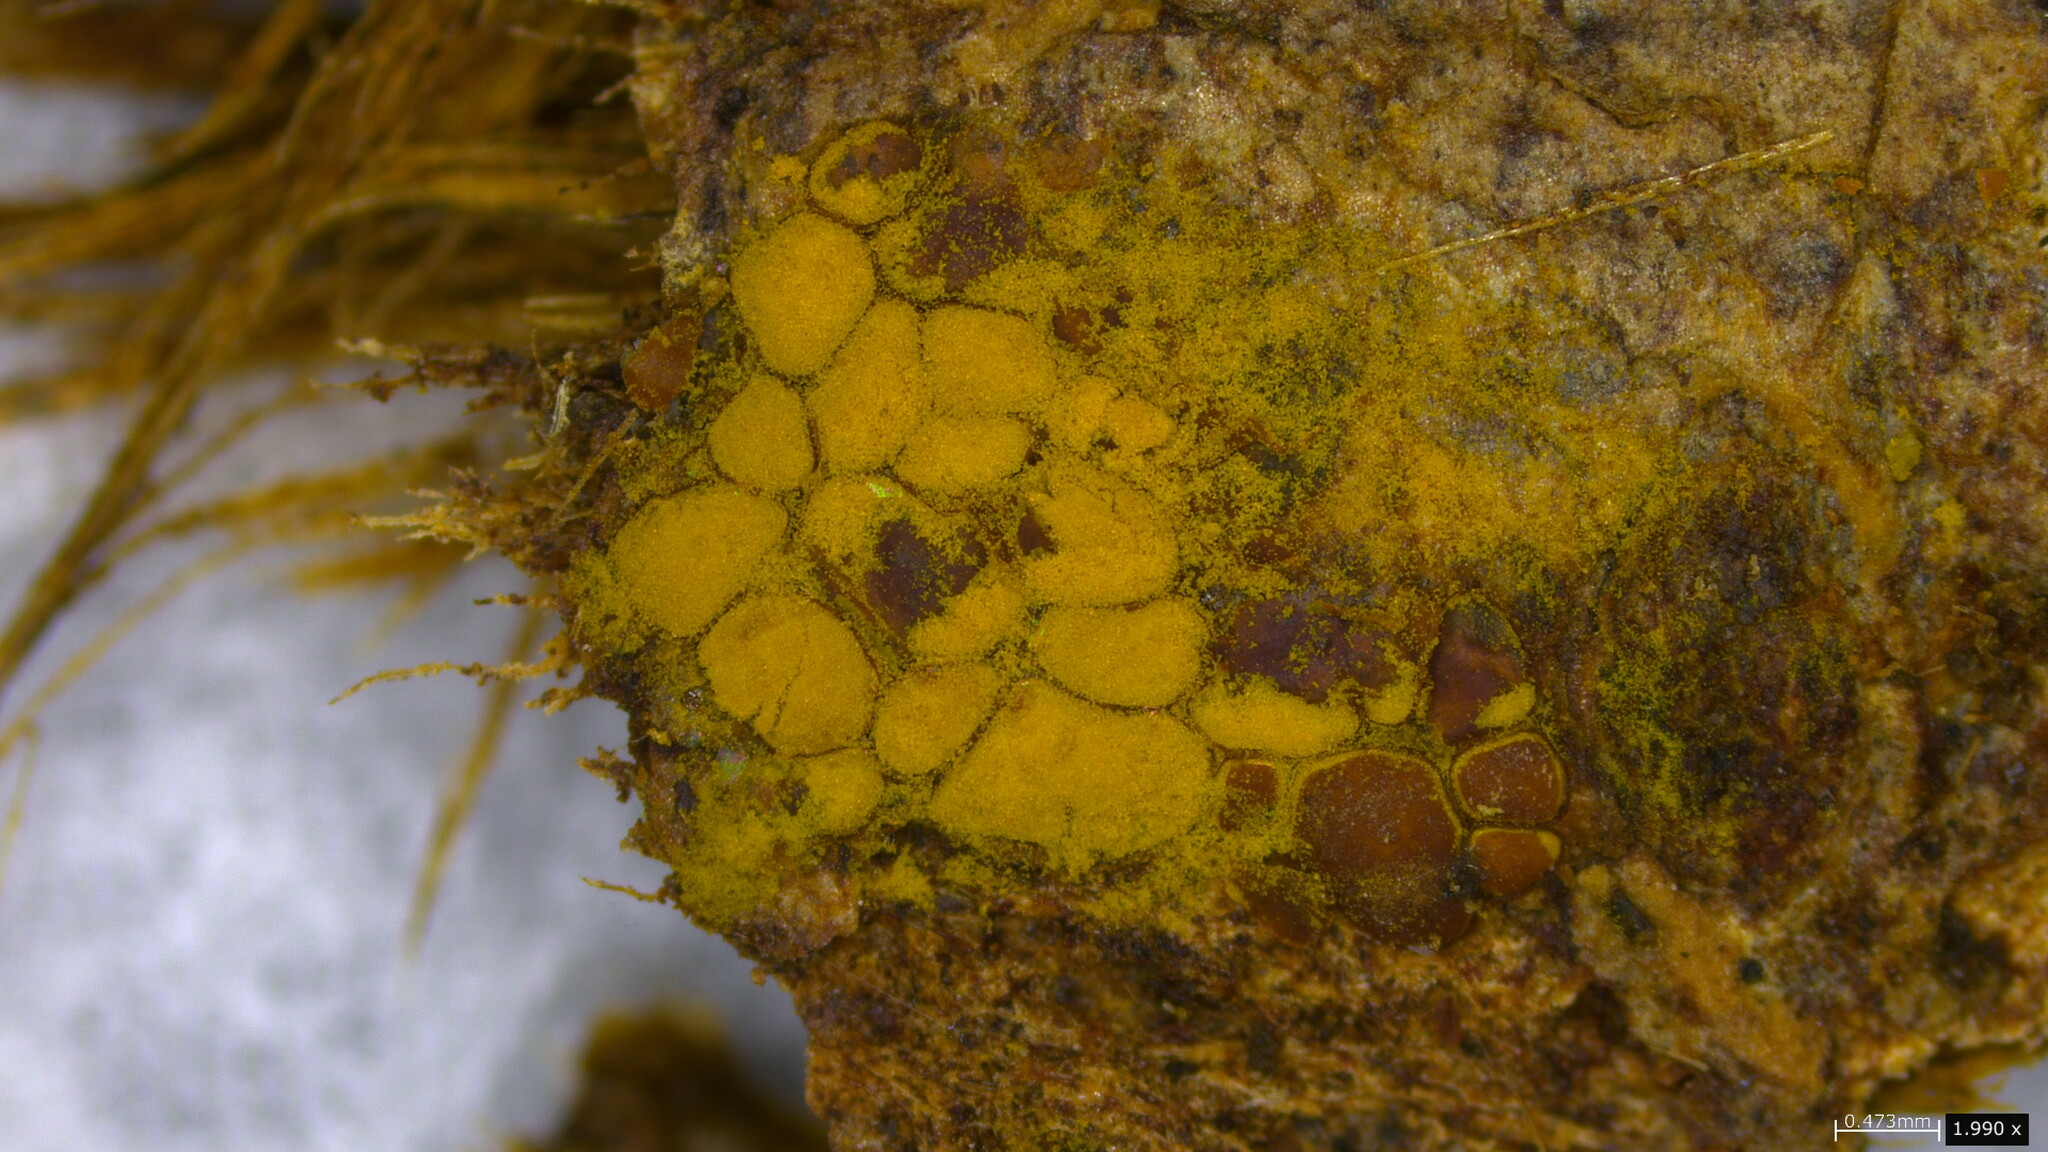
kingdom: Protozoa
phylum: Mycetozoa
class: Myxomycetes
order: Trichiales
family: Trichiaceae
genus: Perichaena
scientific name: Perichaena depressa
